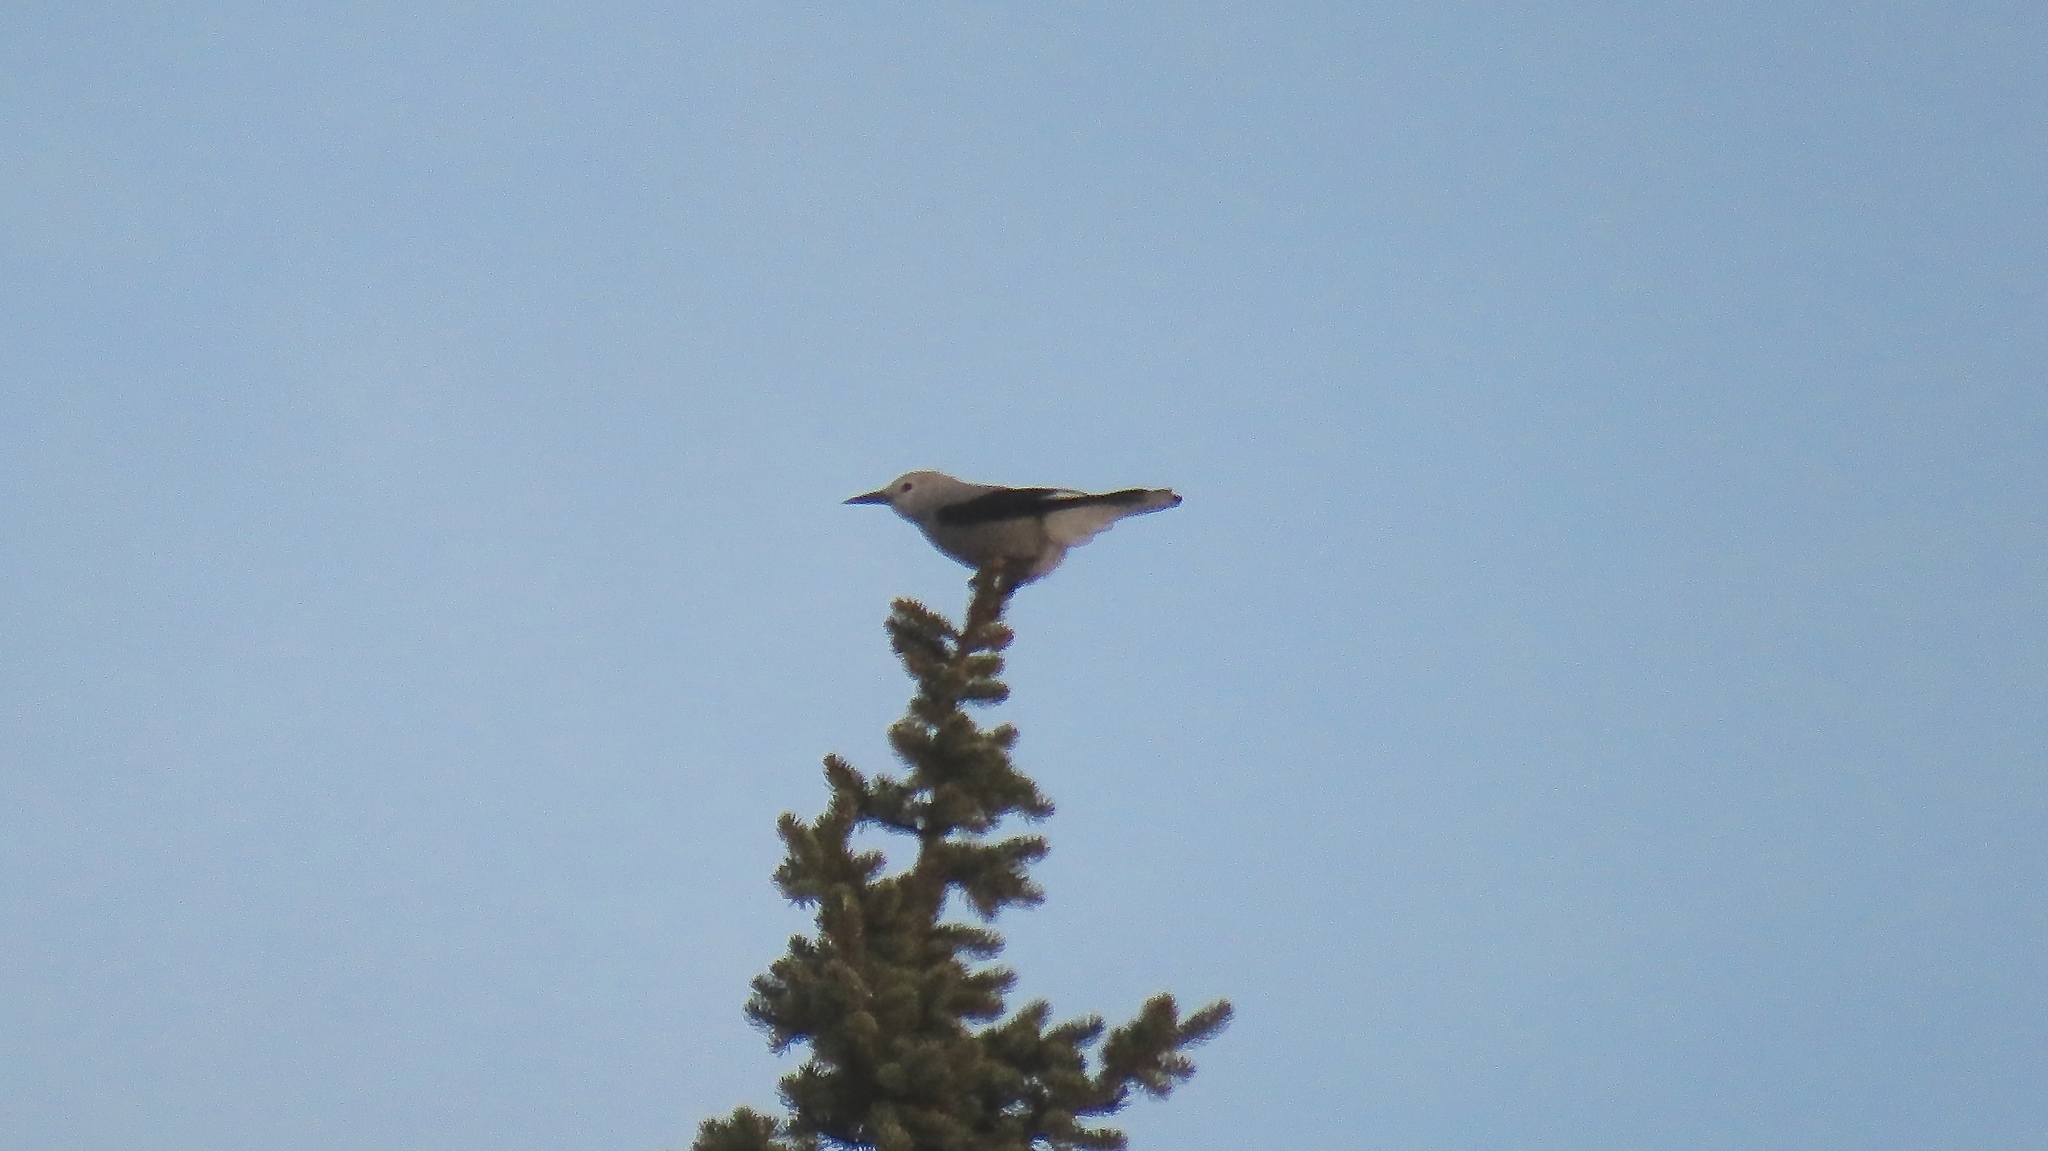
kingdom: Animalia
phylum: Chordata
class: Aves
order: Passeriformes
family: Corvidae
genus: Nucifraga
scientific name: Nucifraga columbiana
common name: Clark's nutcracker
